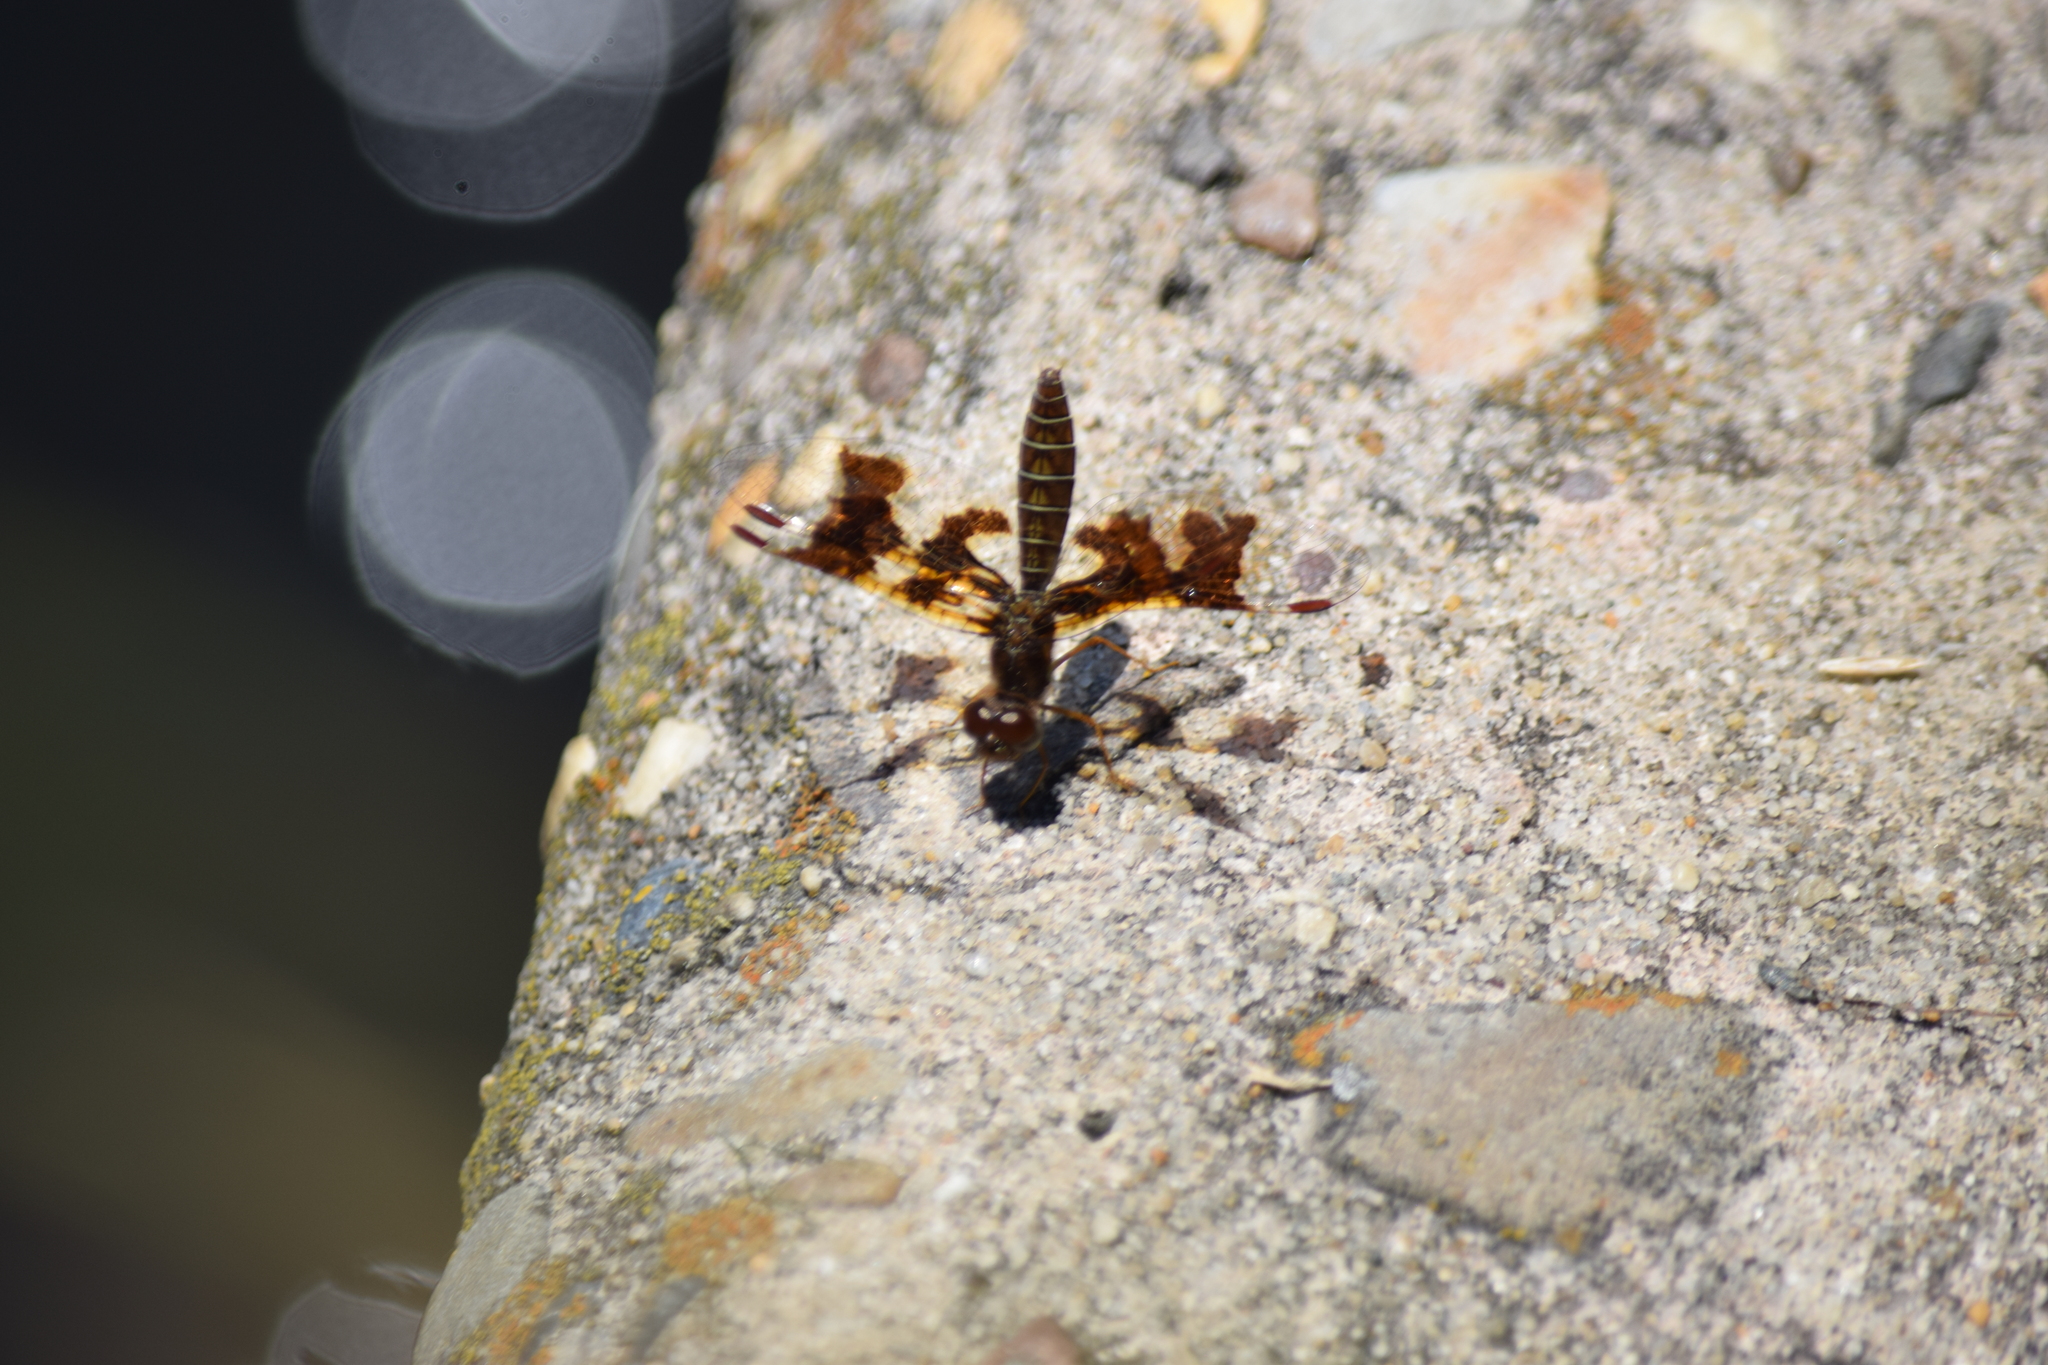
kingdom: Animalia
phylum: Arthropoda
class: Insecta
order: Odonata
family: Libellulidae
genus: Perithemis
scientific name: Perithemis tenera
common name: Eastern amberwing
